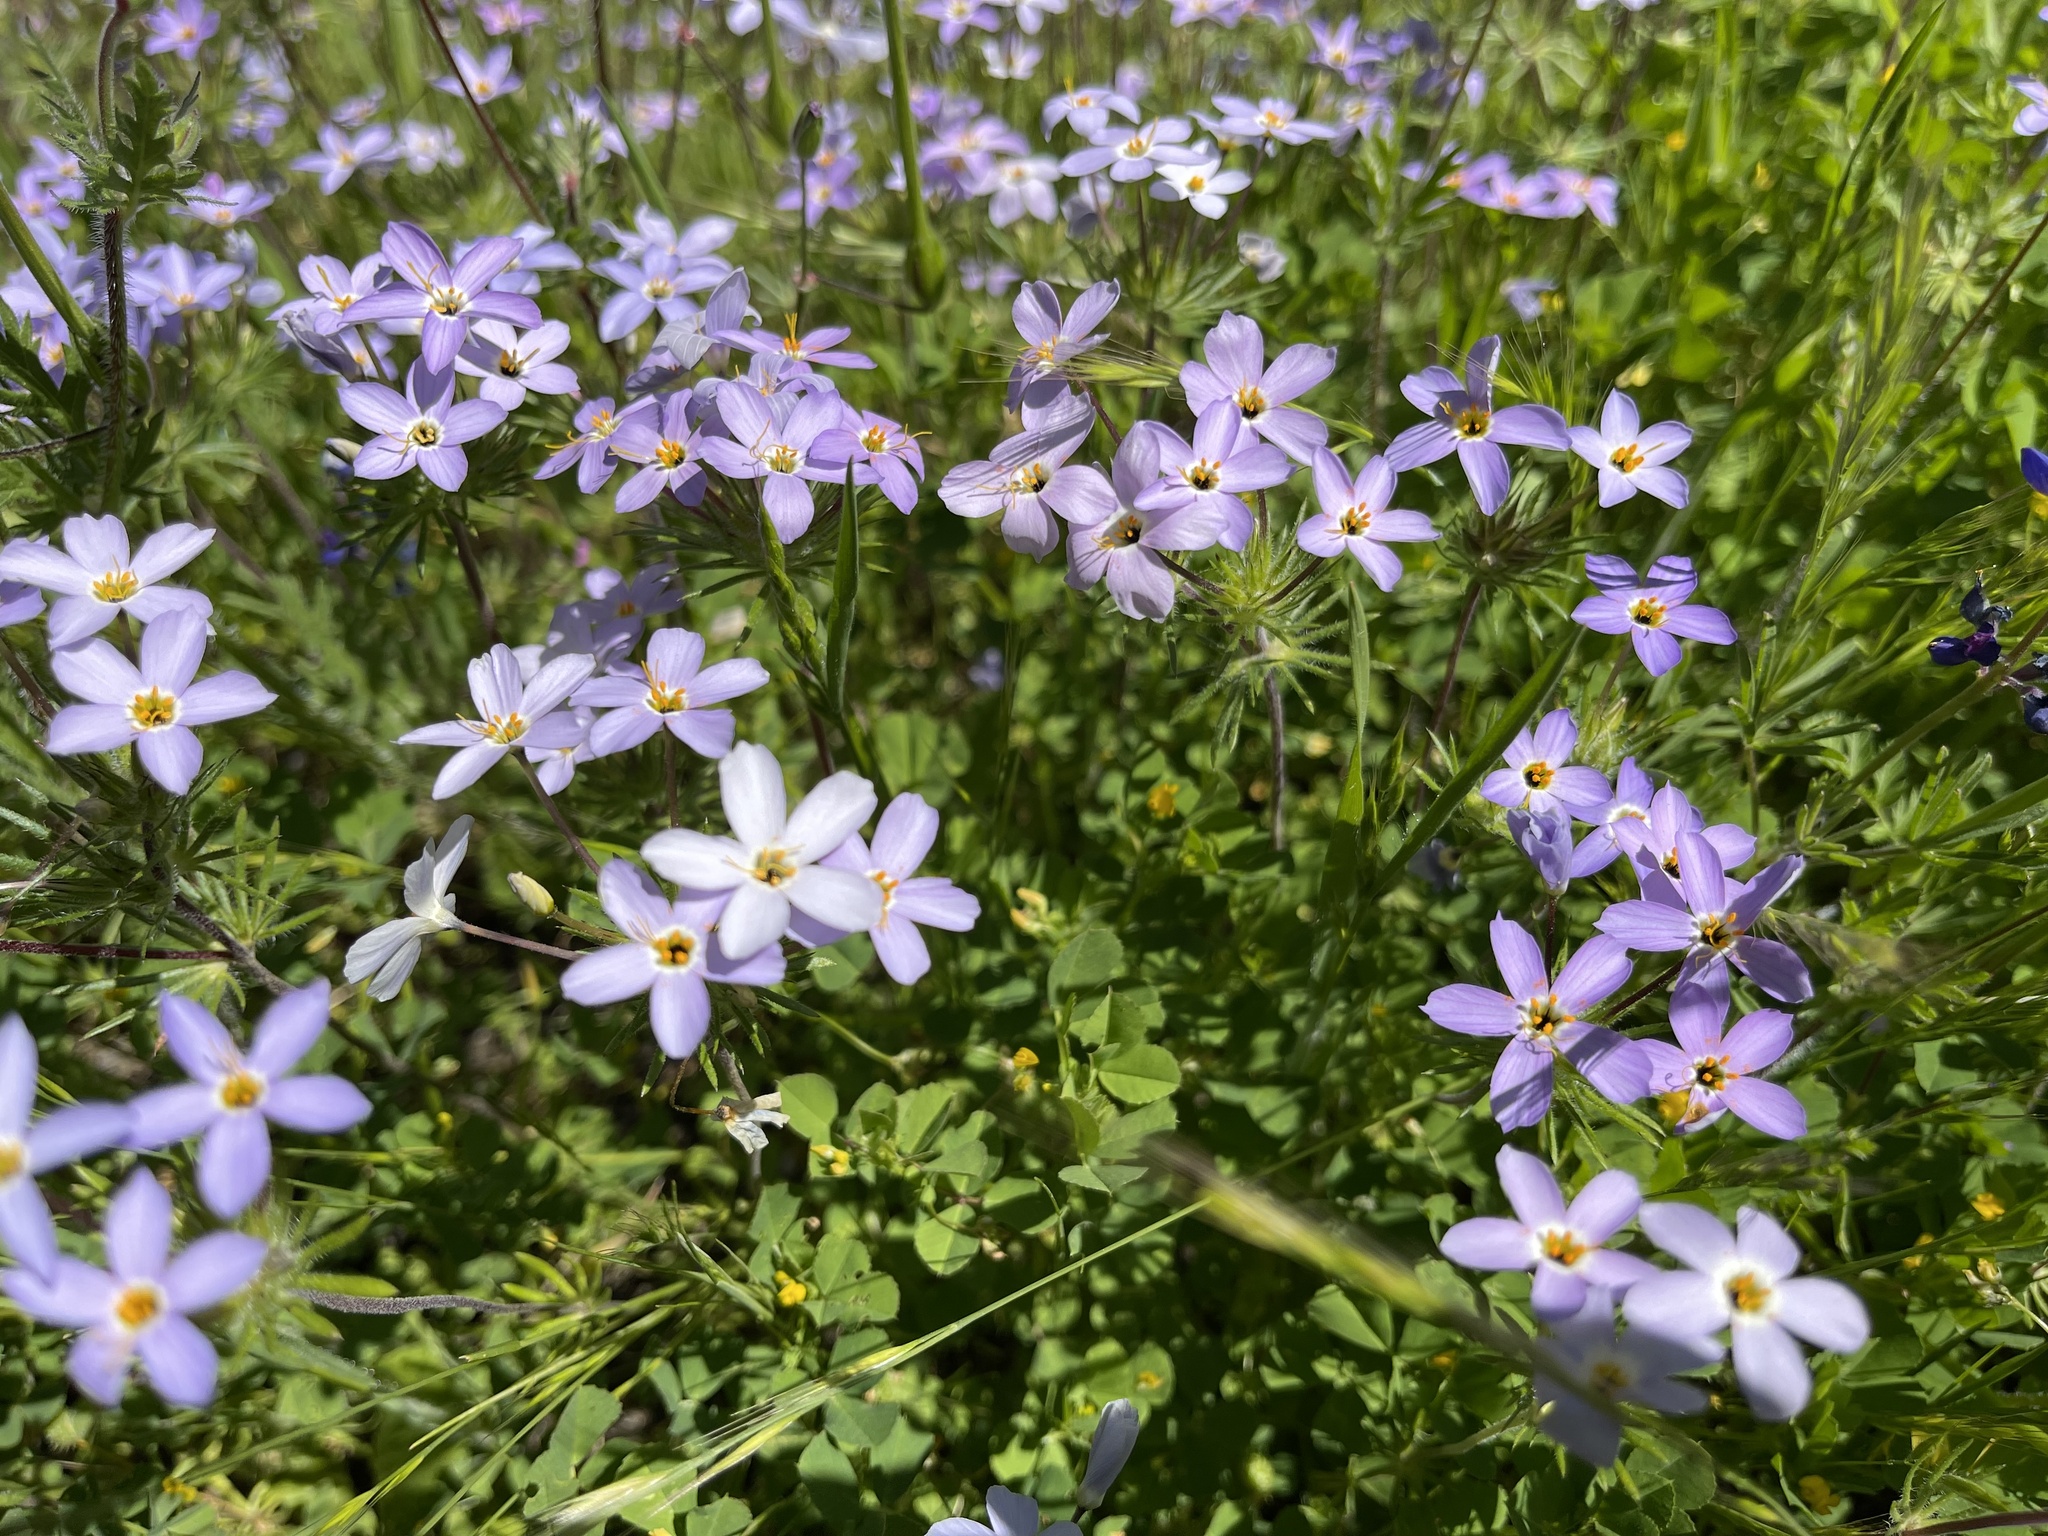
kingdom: Plantae
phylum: Tracheophyta
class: Magnoliopsida
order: Ericales
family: Polemoniaceae
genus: Leptosiphon
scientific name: Leptosiphon androsaceus
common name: False babystars
